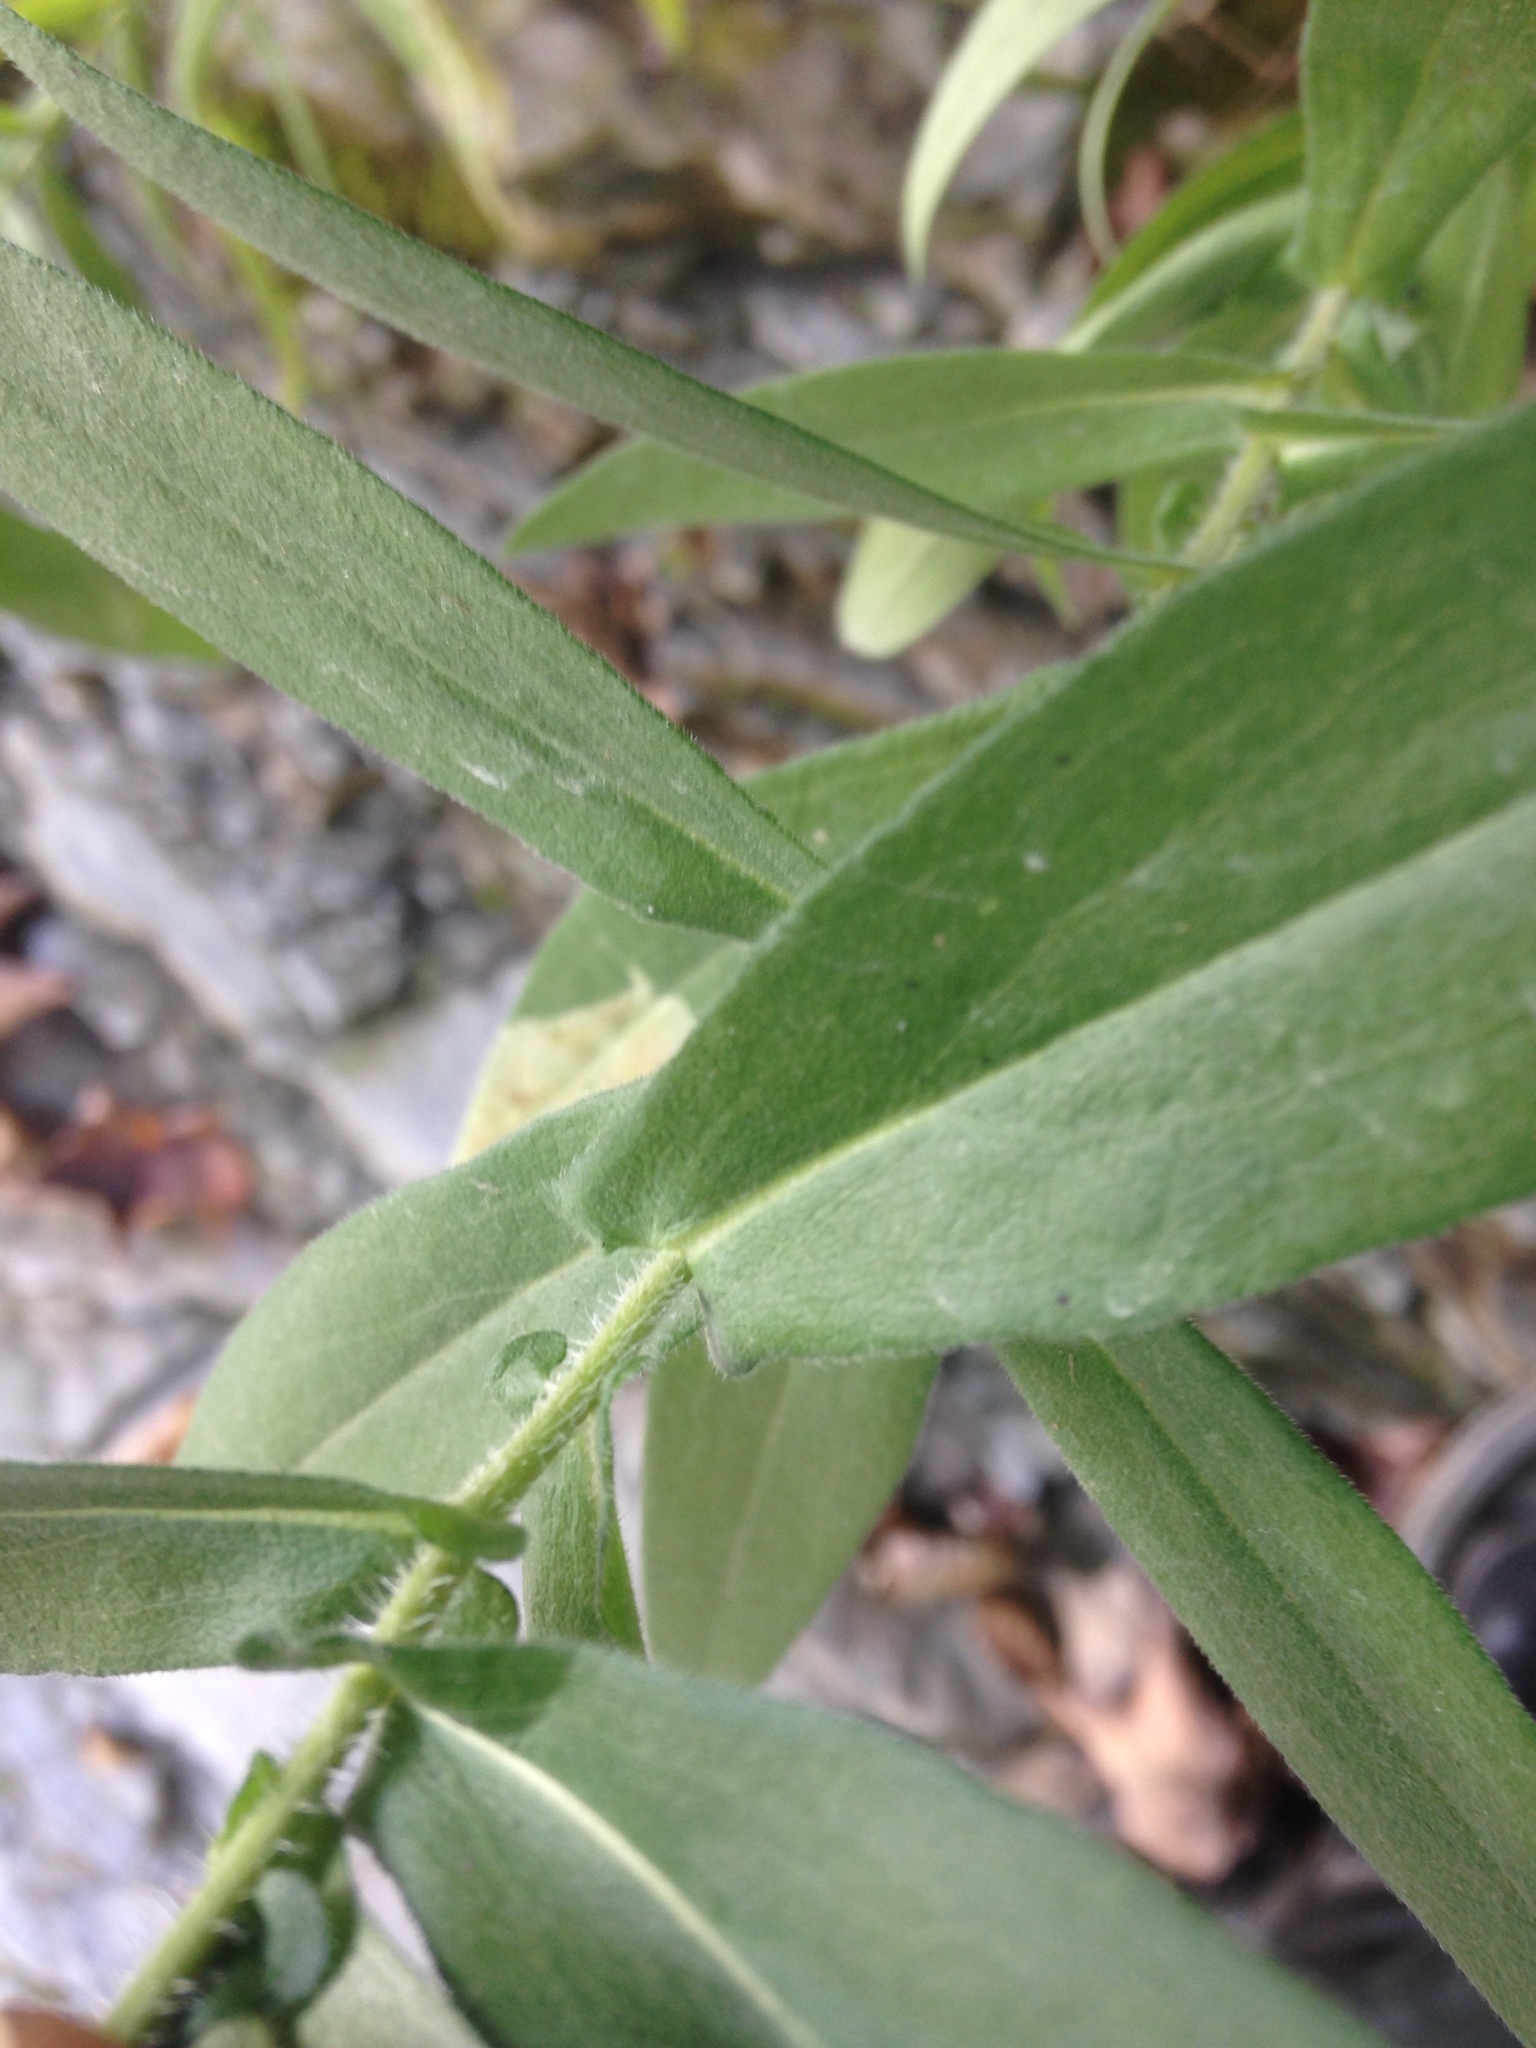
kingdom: Plantae
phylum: Tracheophyta
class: Magnoliopsida
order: Asterales
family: Asteraceae
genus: Symphyotrichum
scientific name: Symphyotrichum novae-angliae
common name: Michaelmas daisy
